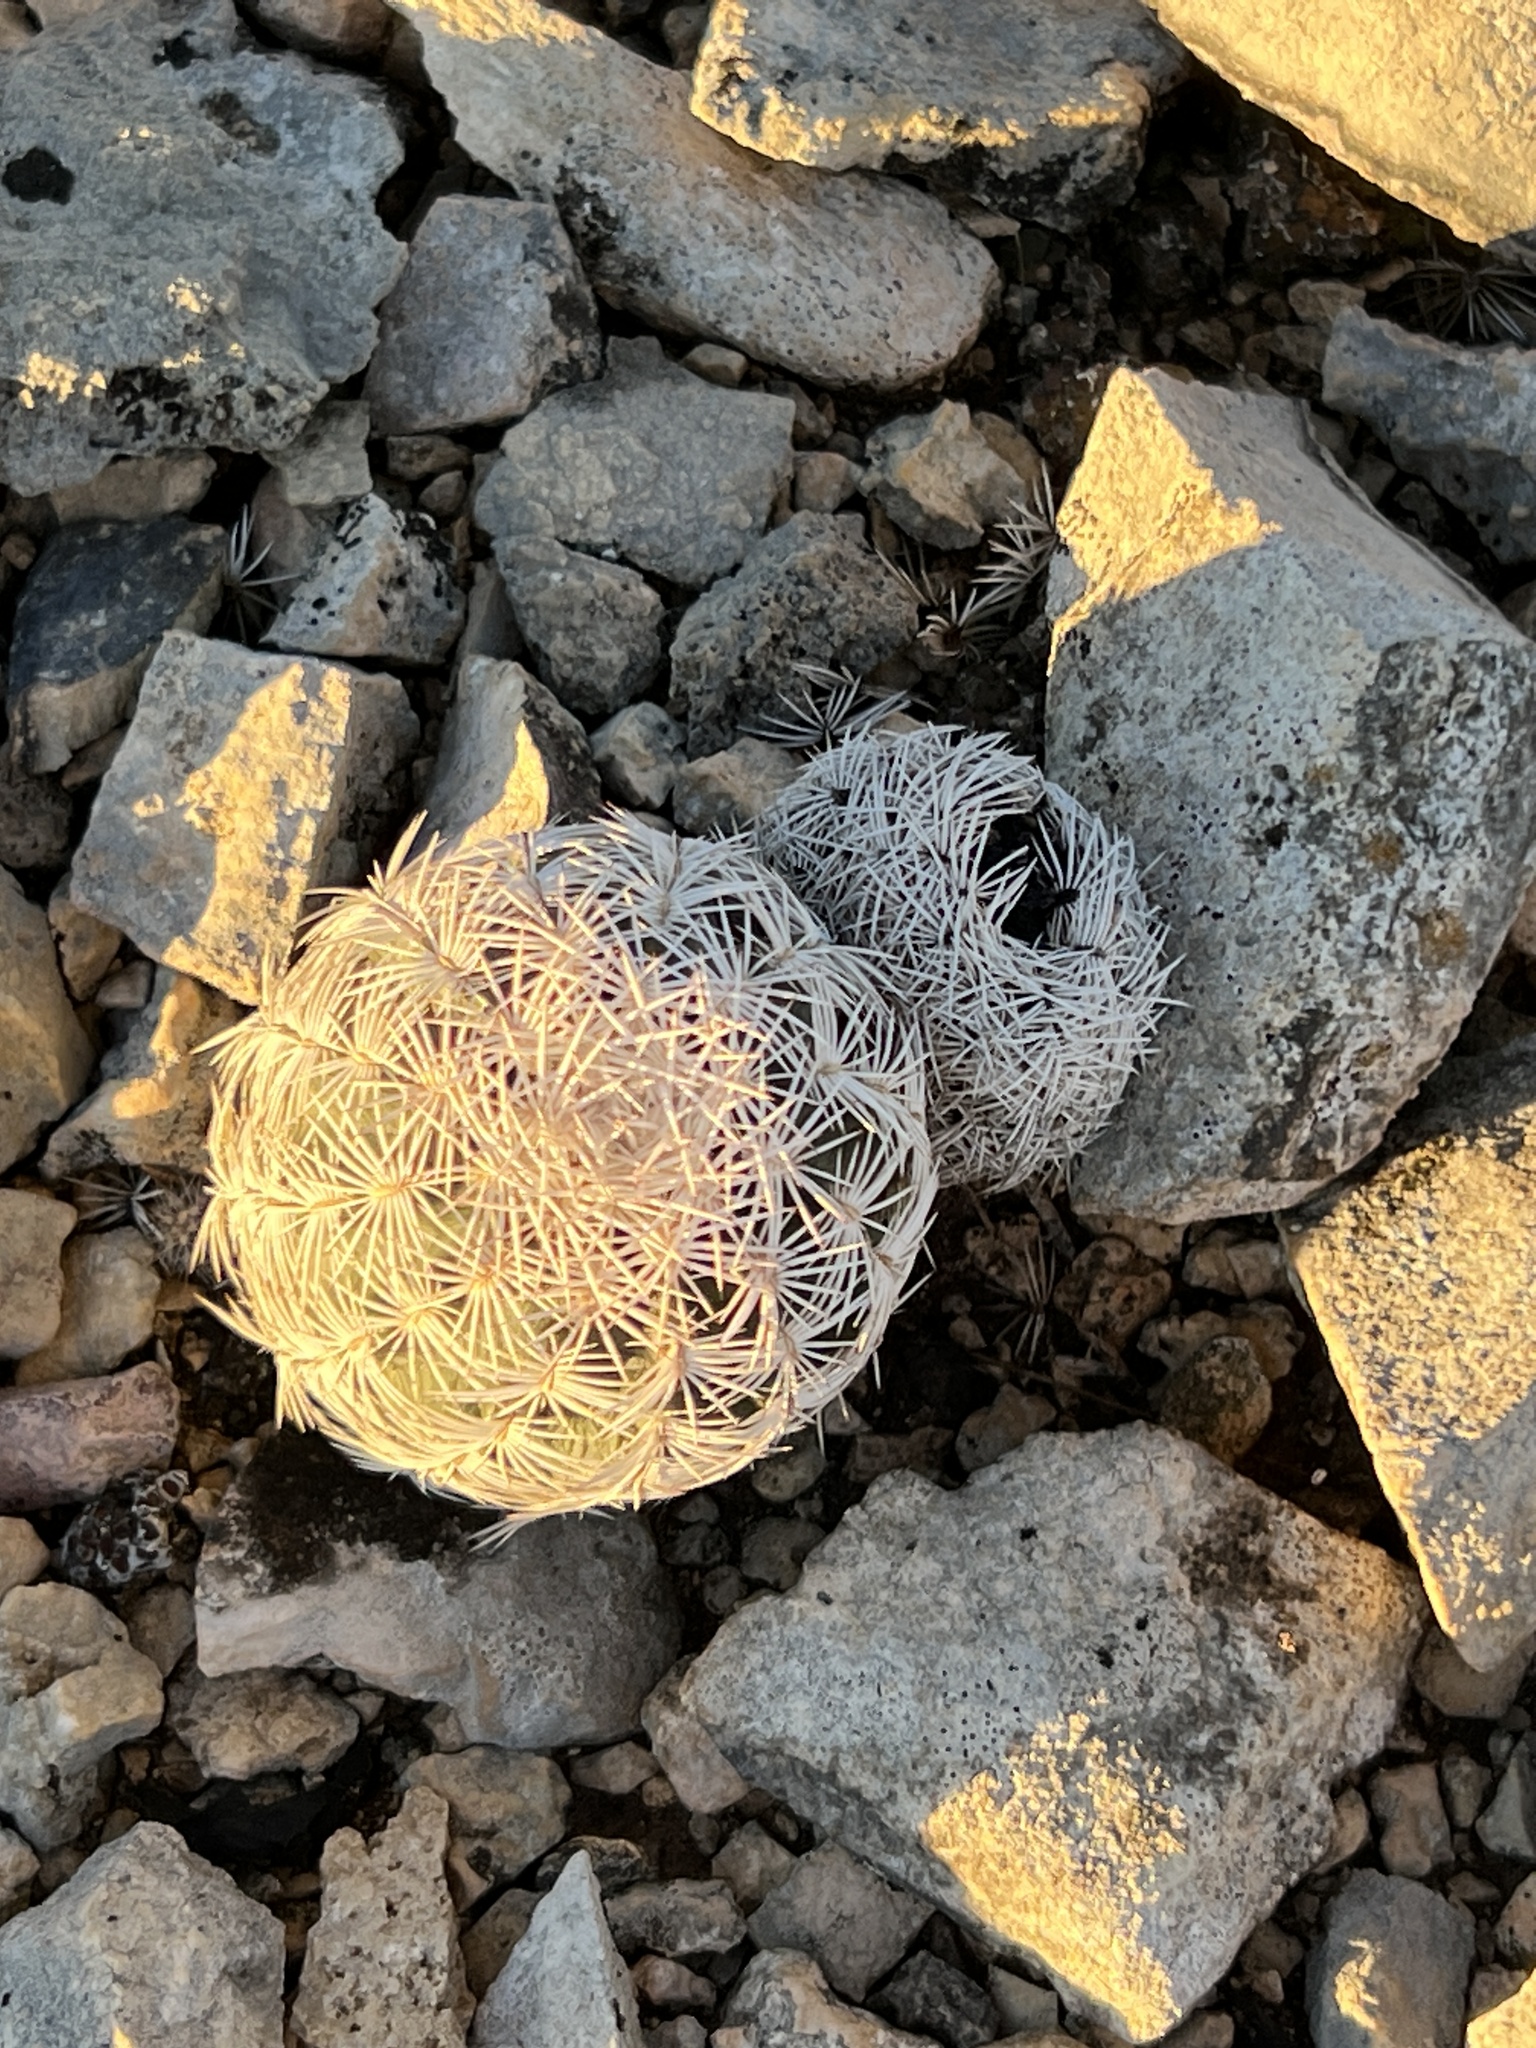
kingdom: Plantae
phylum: Tracheophyta
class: Magnoliopsida
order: Caryophyllales
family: Cactaceae
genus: Echinocereus
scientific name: Echinocereus reichenbachii
